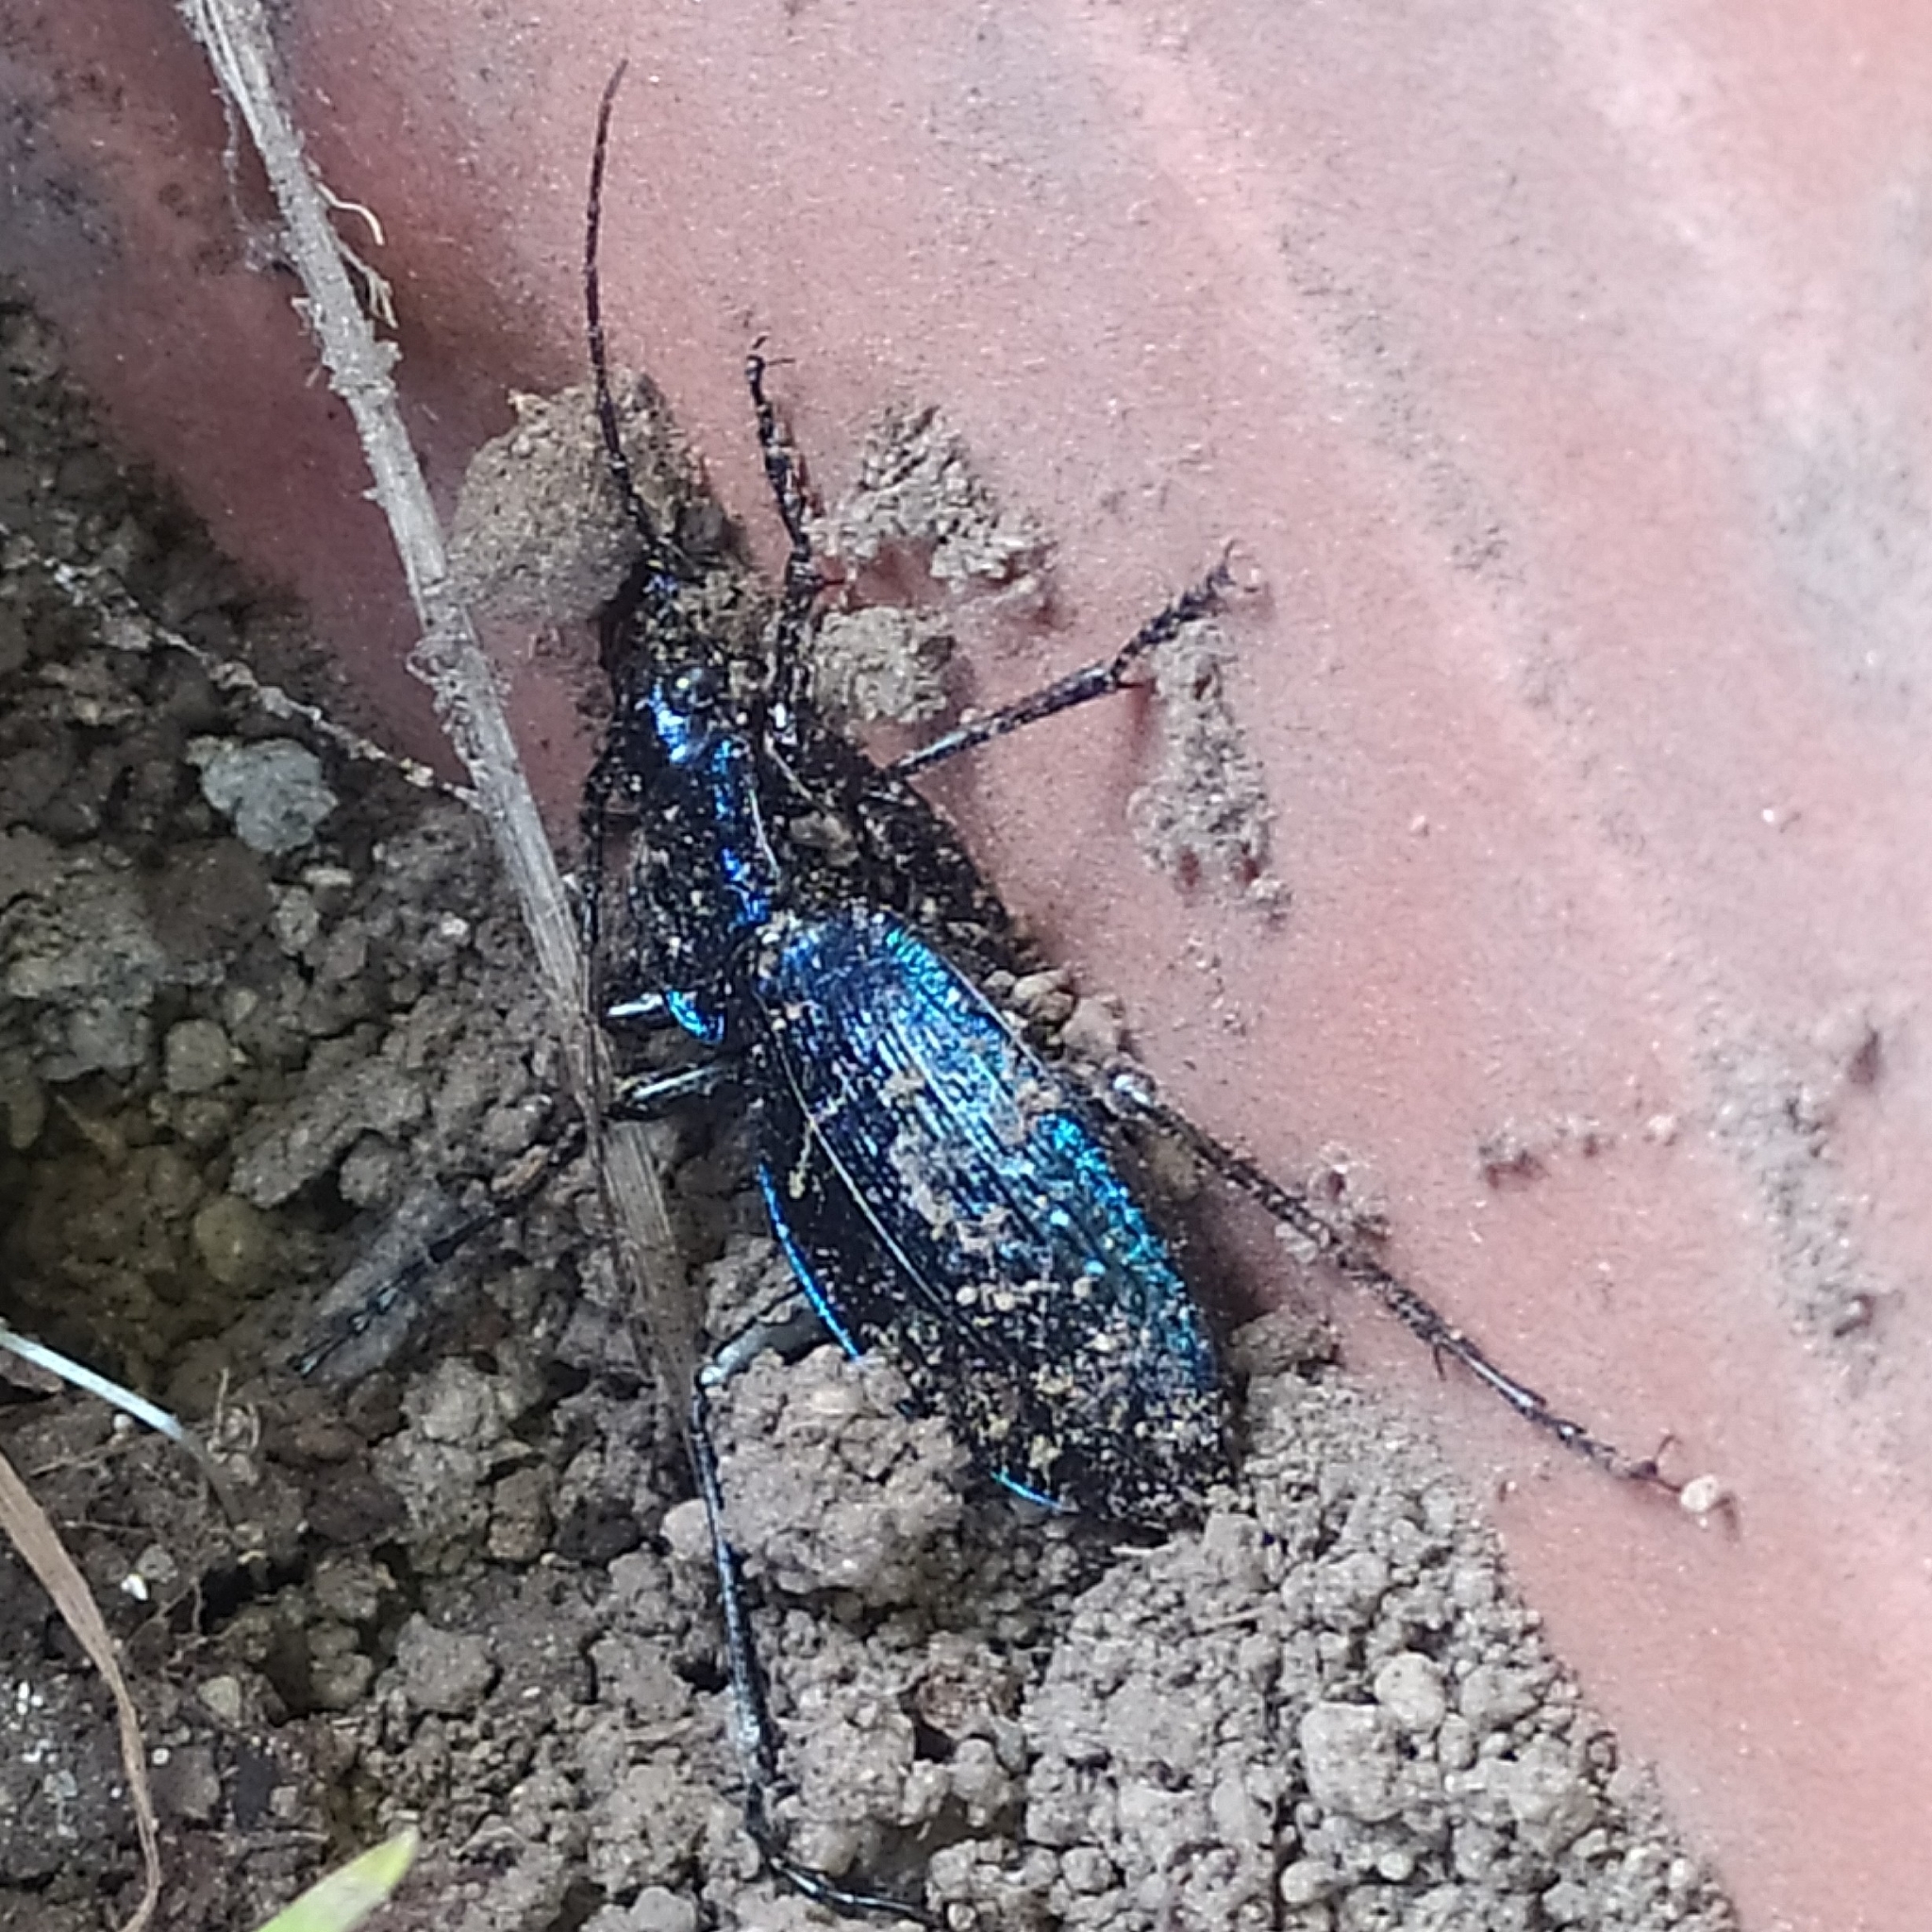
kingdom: Animalia
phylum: Arthropoda
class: Insecta
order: Coleoptera
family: Carabidae
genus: Carabus
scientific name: Carabus lefebvrei
